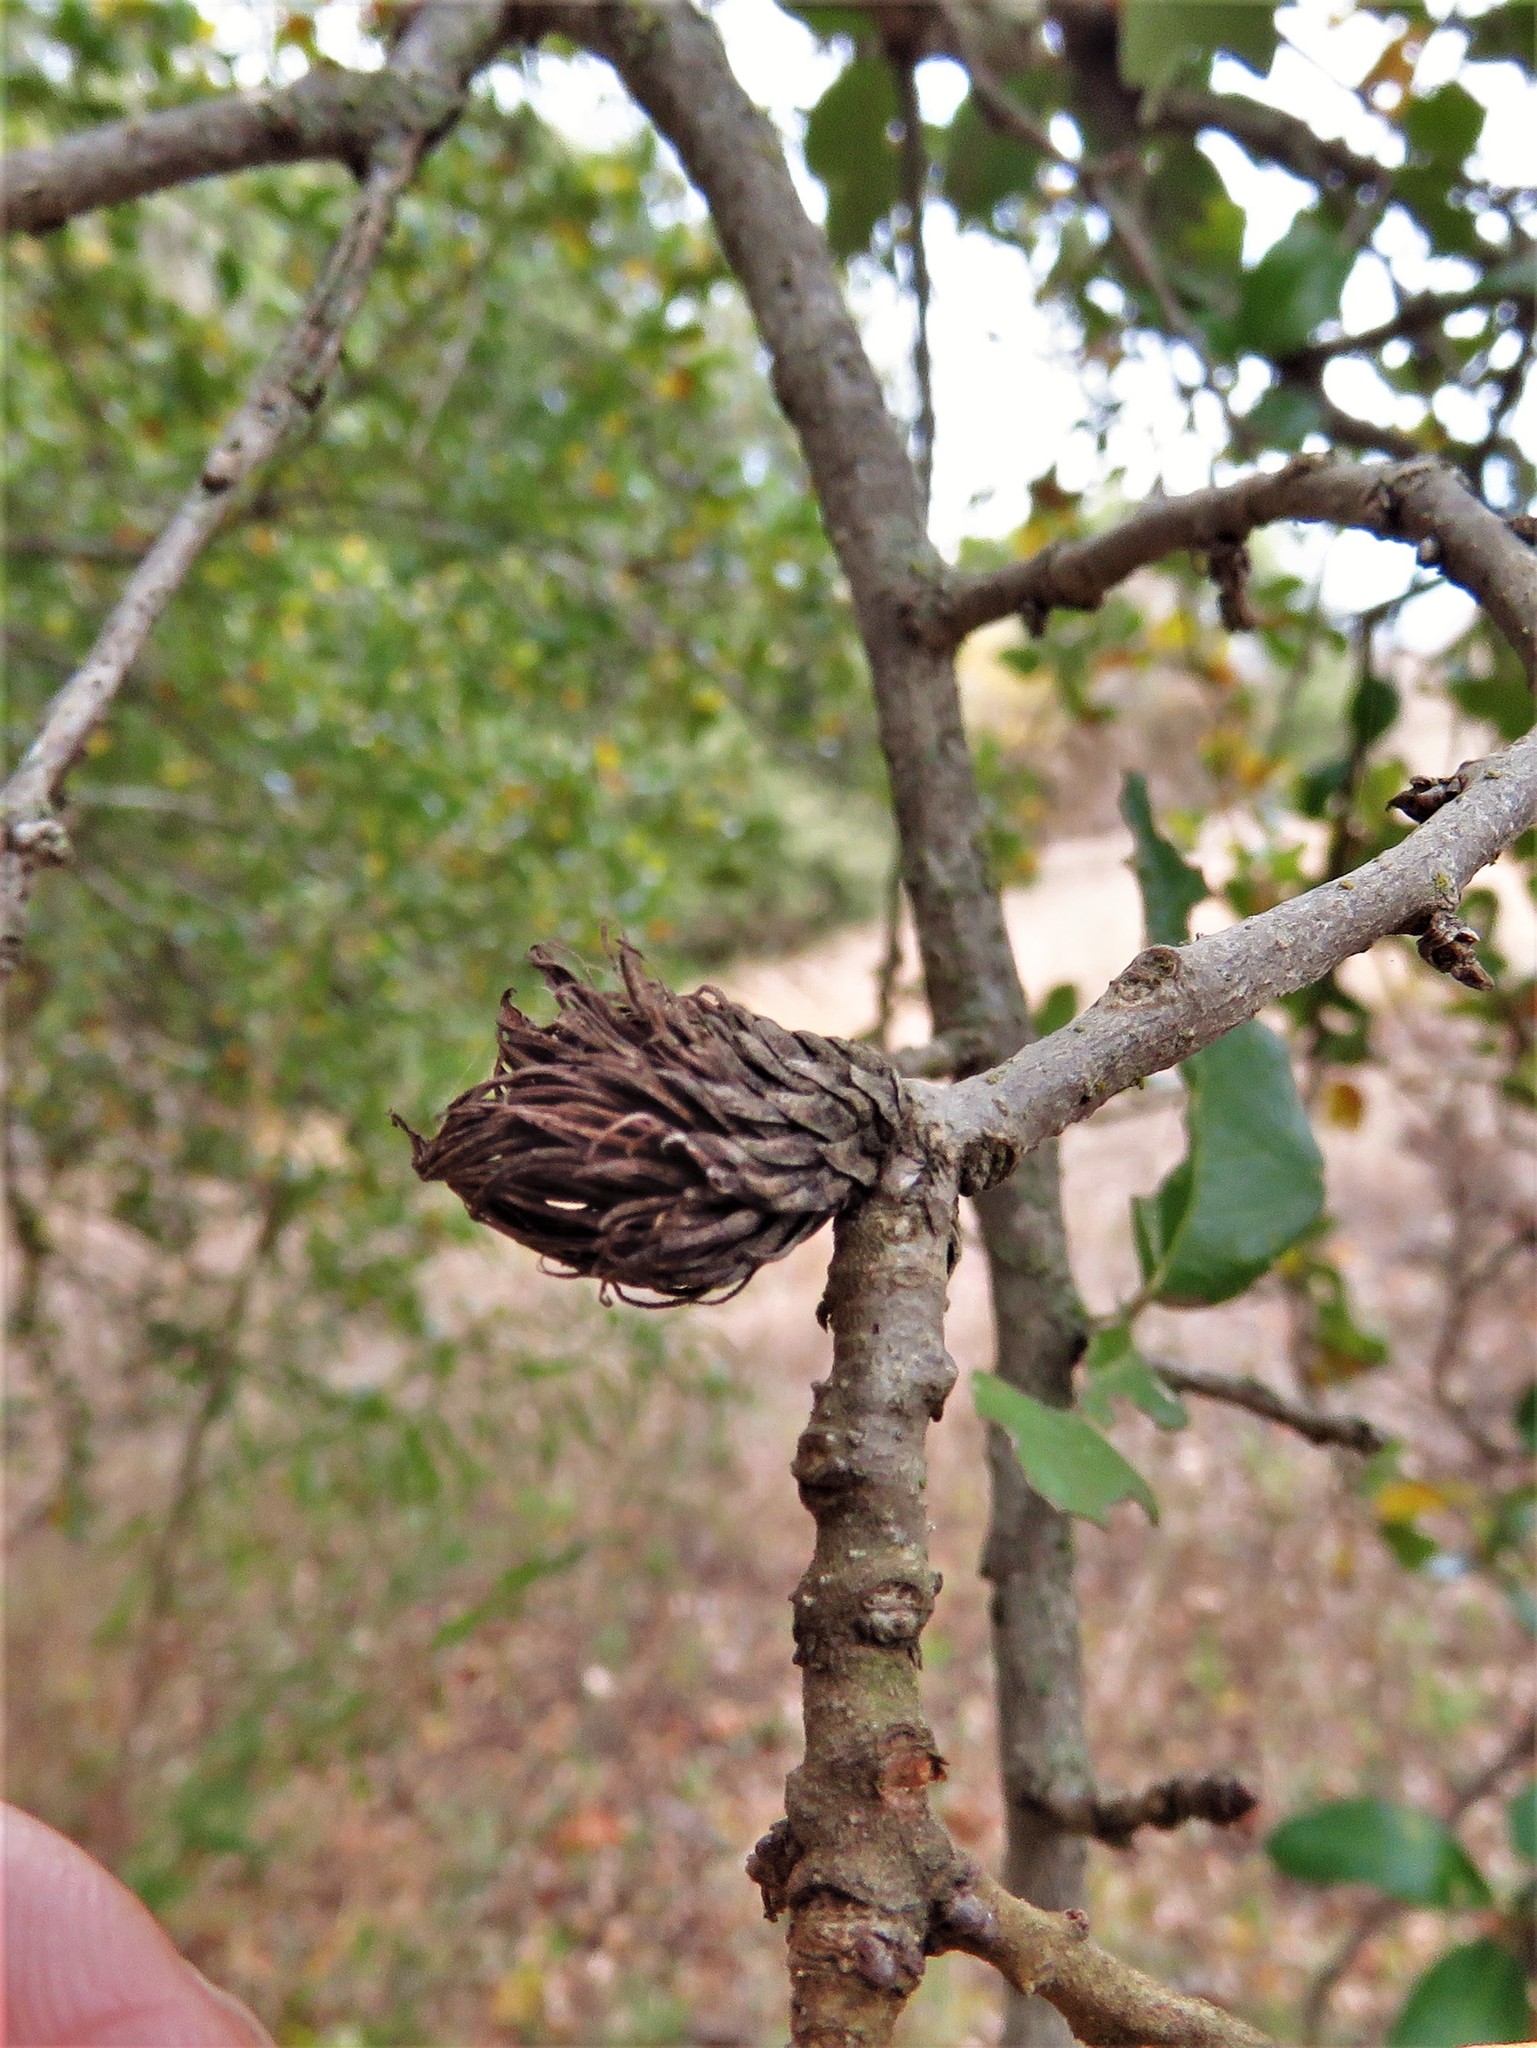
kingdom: Animalia
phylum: Arthropoda
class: Insecta
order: Hymenoptera
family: Cynipidae
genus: Andricus
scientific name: Andricus quercusfoliatus
